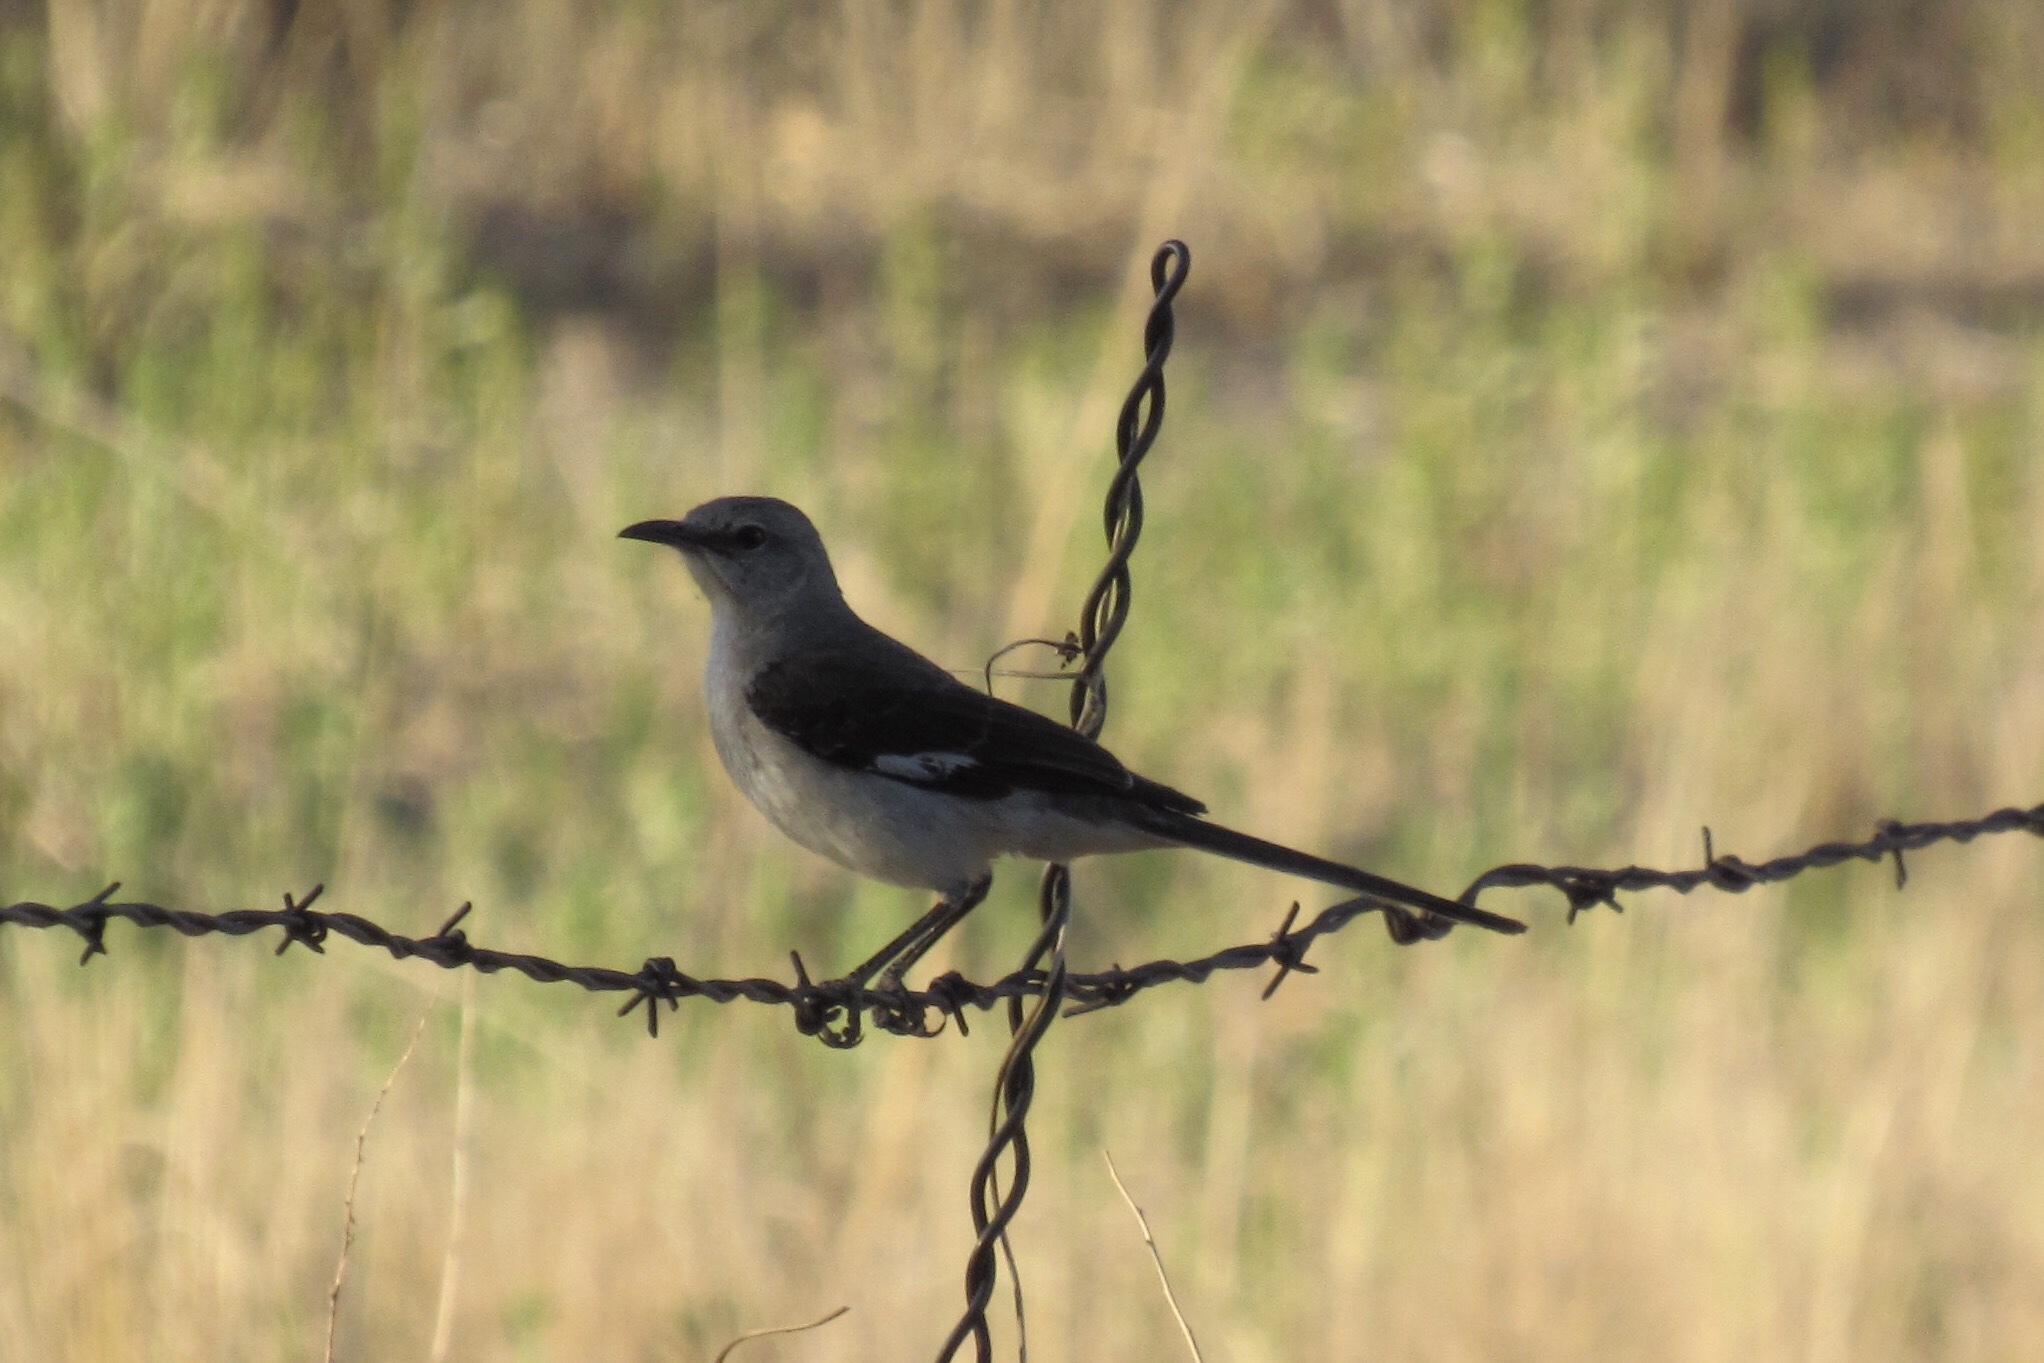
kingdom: Animalia
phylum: Chordata
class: Aves
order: Passeriformes
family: Mimidae
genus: Mimus
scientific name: Mimus polyglottos
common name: Northern mockingbird
